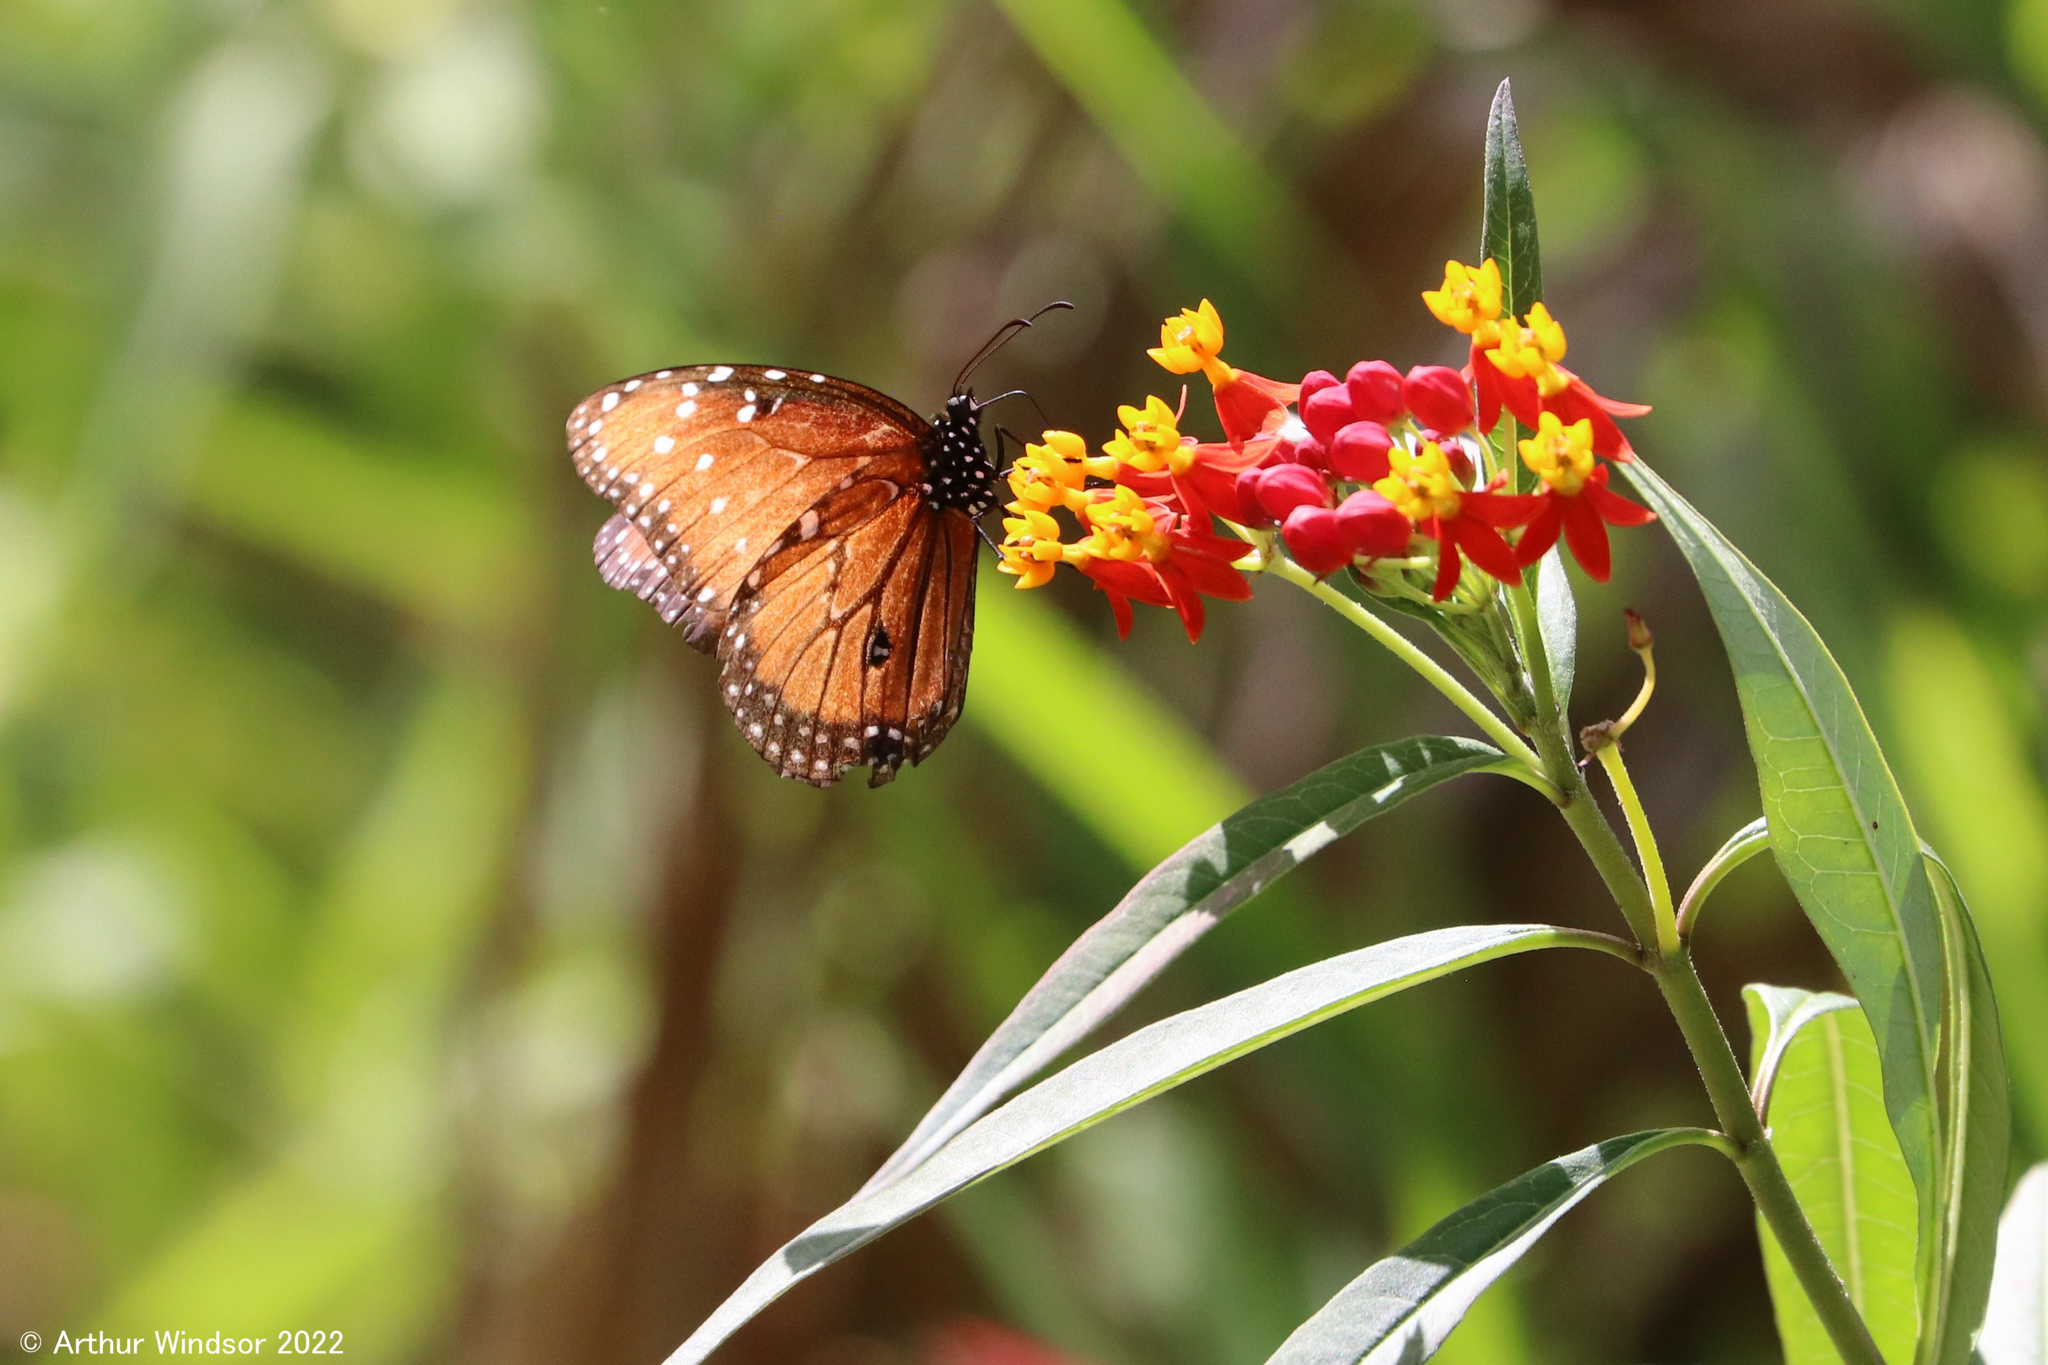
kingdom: Animalia
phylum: Arthropoda
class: Insecta
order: Lepidoptera
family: Nymphalidae
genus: Danaus
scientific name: Danaus gilippus
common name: Queen
